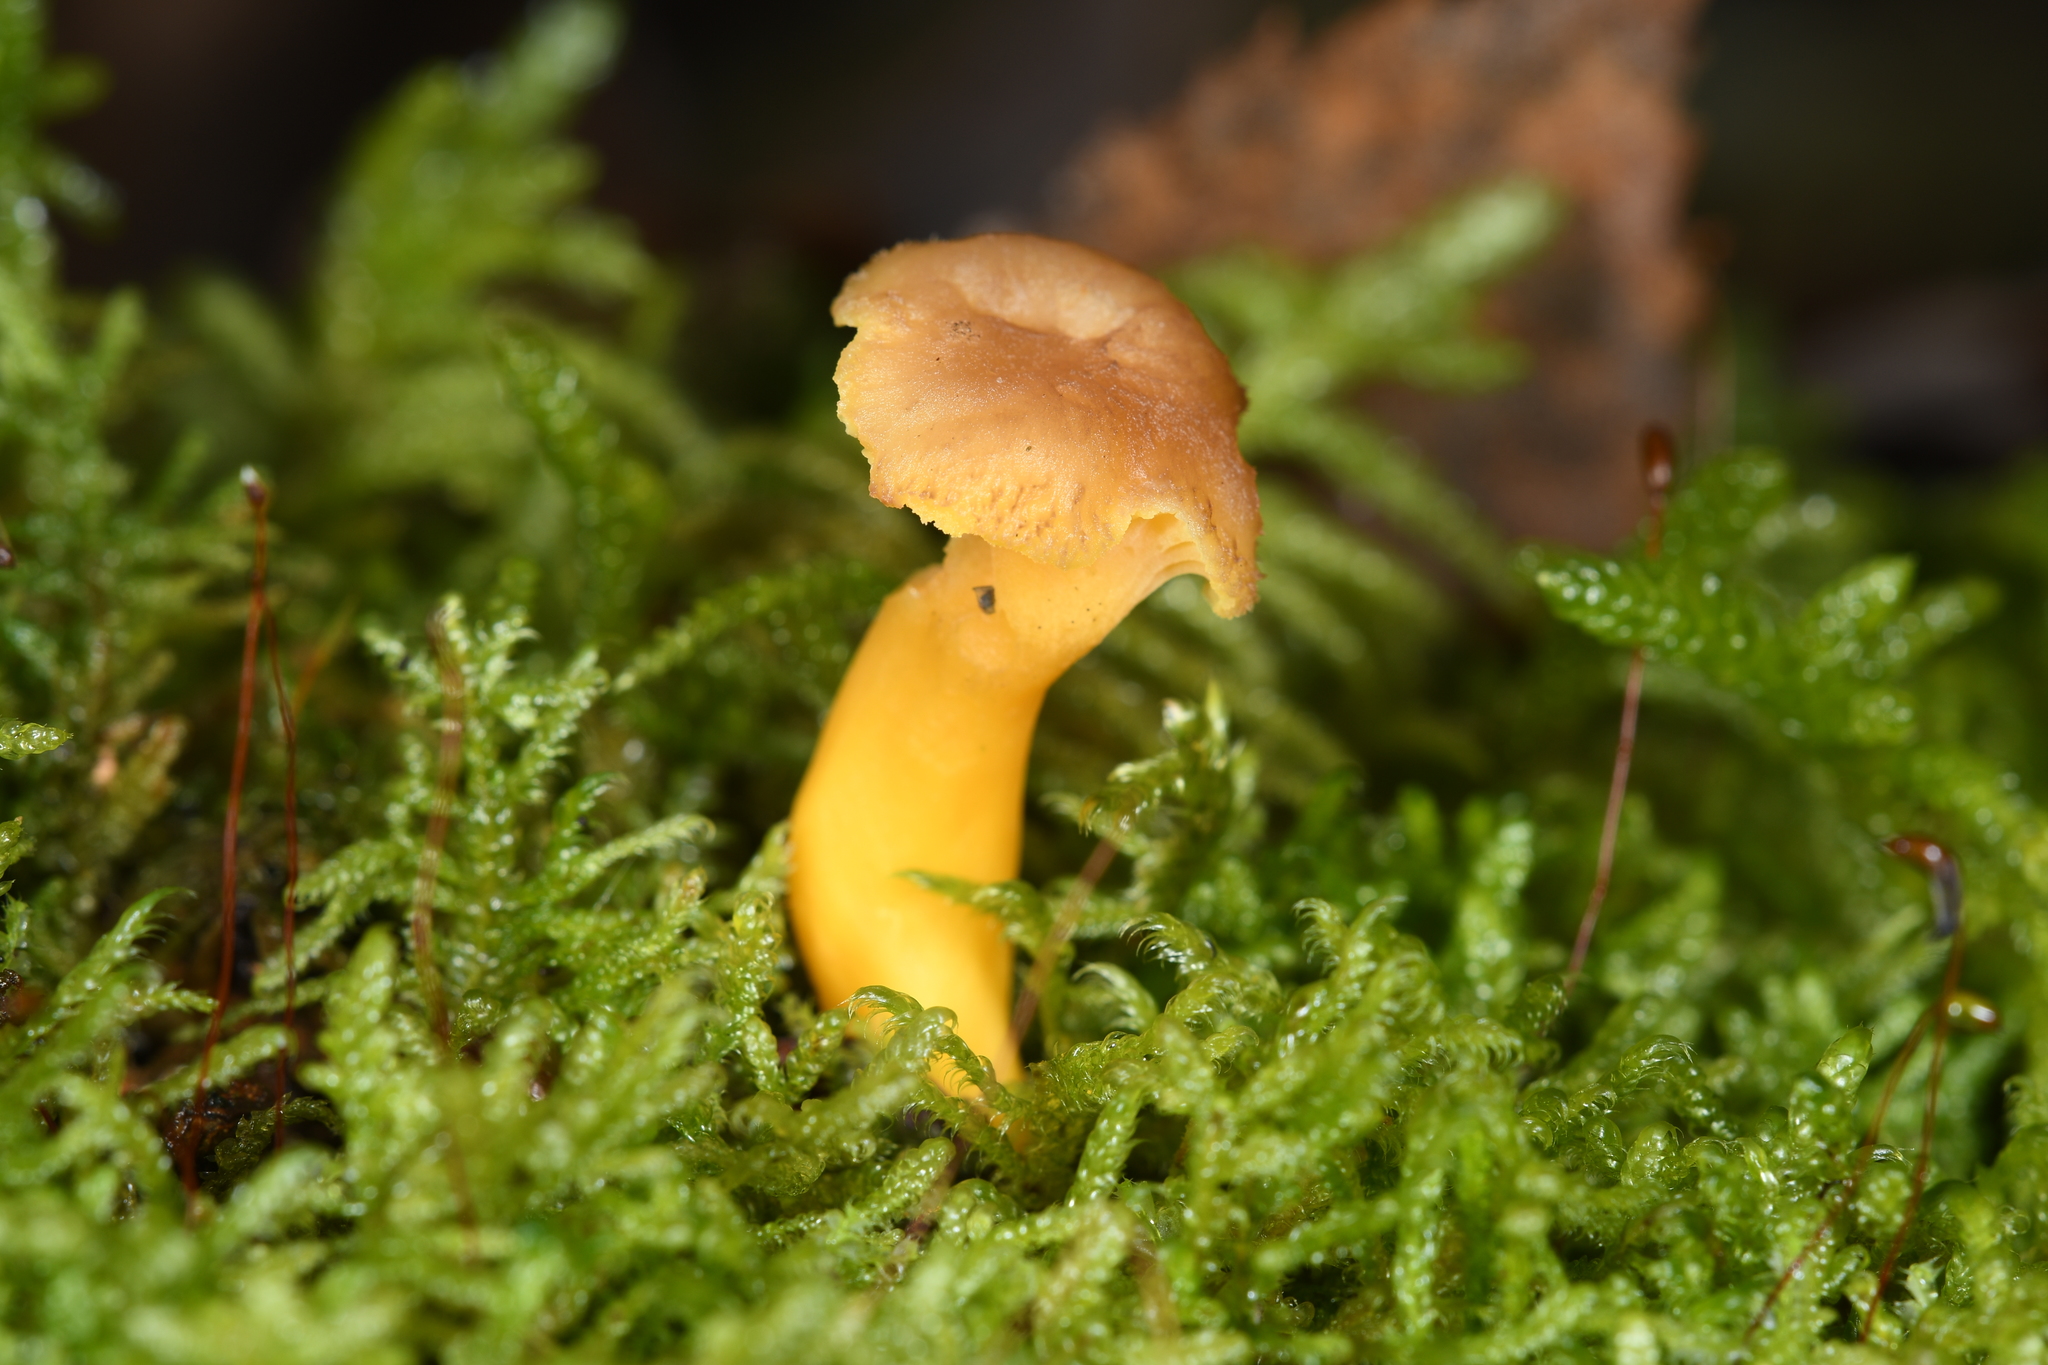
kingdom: Fungi
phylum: Basidiomycota
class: Agaricomycetes
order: Cantharellales
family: Hydnaceae
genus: Craterellus
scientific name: Craterellus tubaeformis
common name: Yellowfoot
